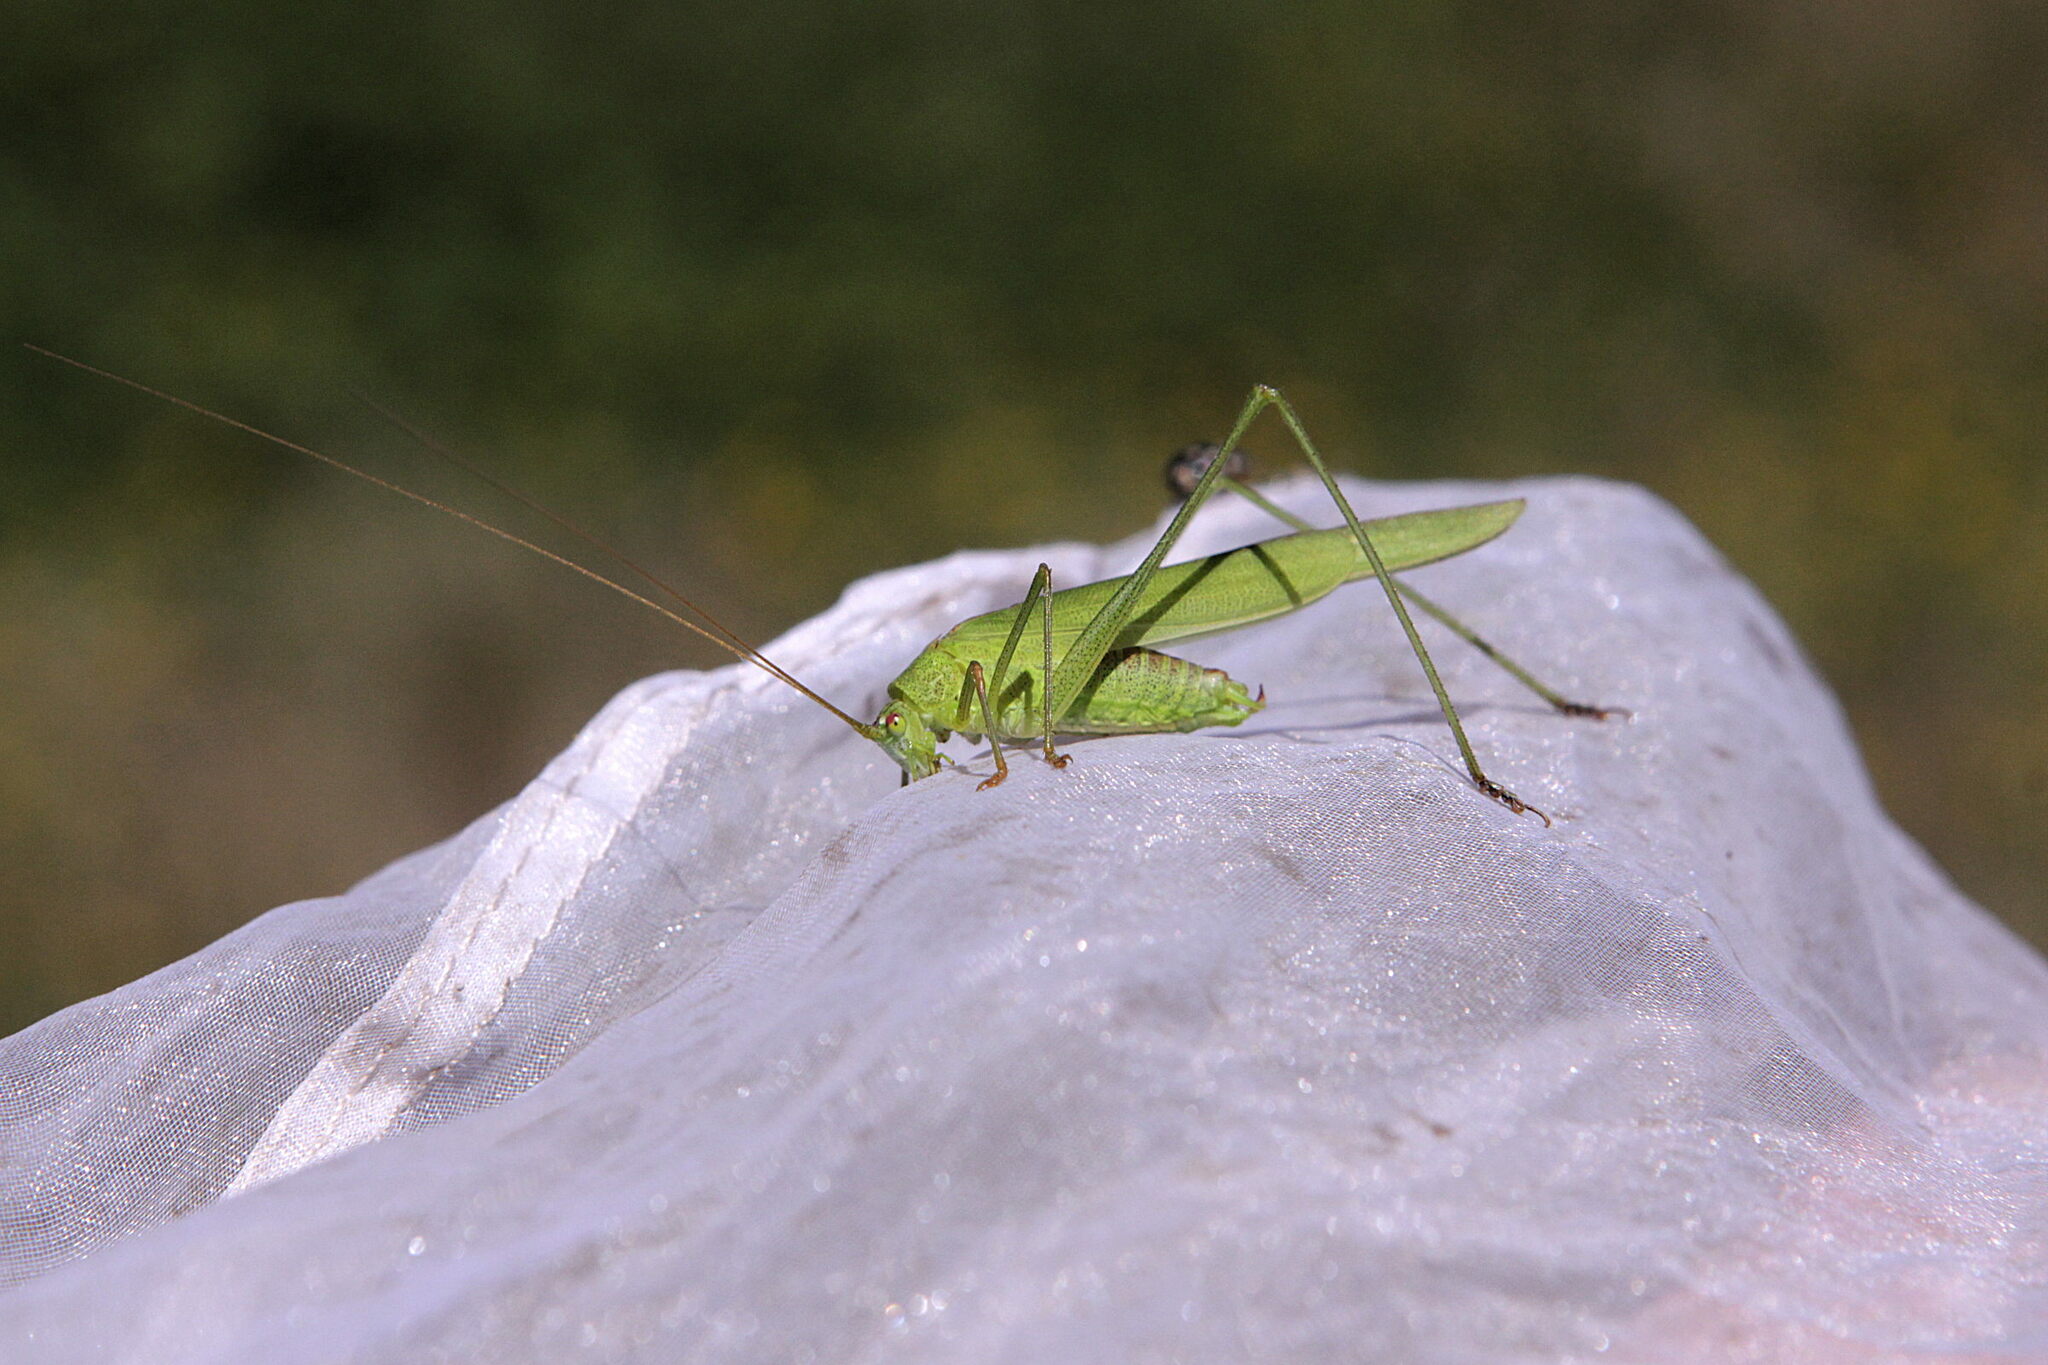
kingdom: Animalia
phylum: Arthropoda
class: Insecta
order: Orthoptera
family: Tettigoniidae
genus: Phaneroptera
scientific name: Phaneroptera falcata
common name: Sickle-bearing bush-cricket
